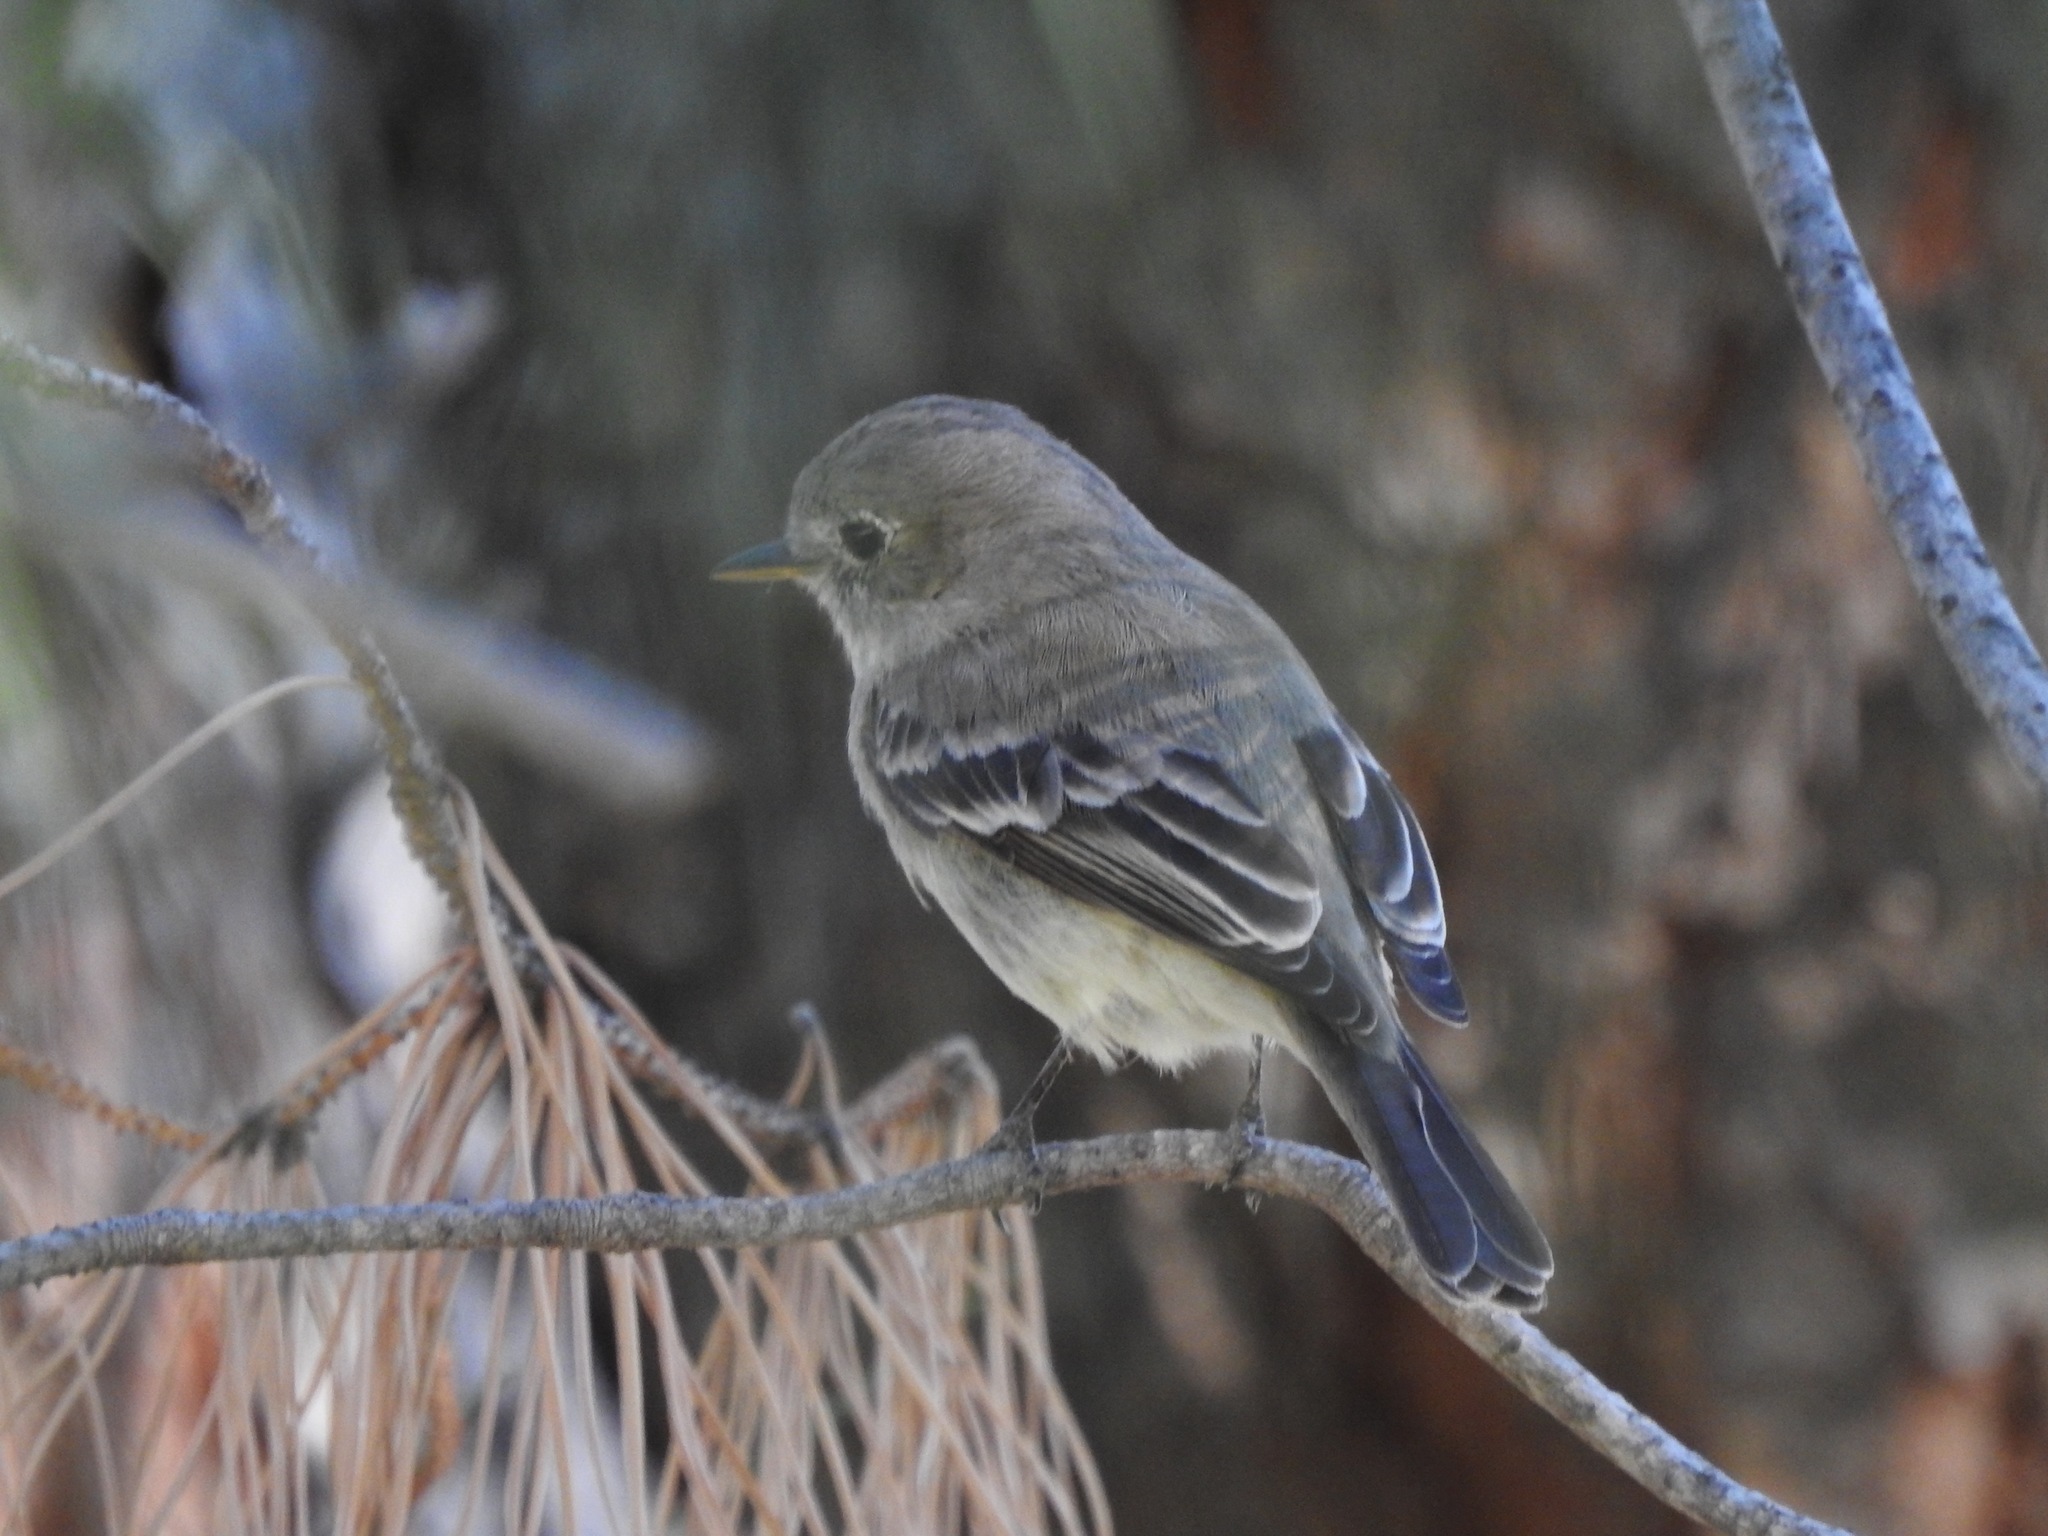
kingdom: Animalia
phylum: Chordata
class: Aves
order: Passeriformes
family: Tyrannidae
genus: Empidonax
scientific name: Empidonax wrightii
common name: Gray flycatcher
